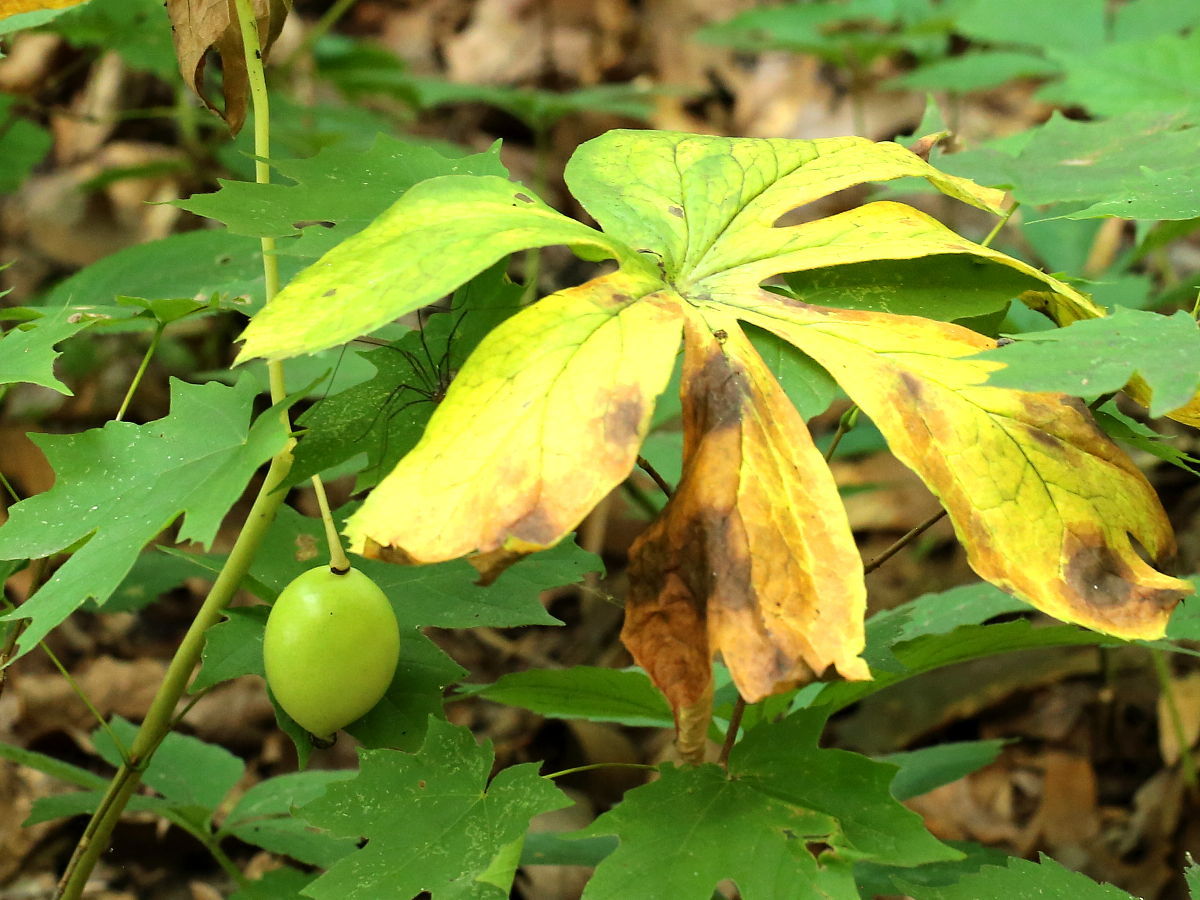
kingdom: Plantae
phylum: Tracheophyta
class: Magnoliopsida
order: Ranunculales
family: Berberidaceae
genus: Podophyllum
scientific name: Podophyllum peltatum
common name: Wild mandrake
